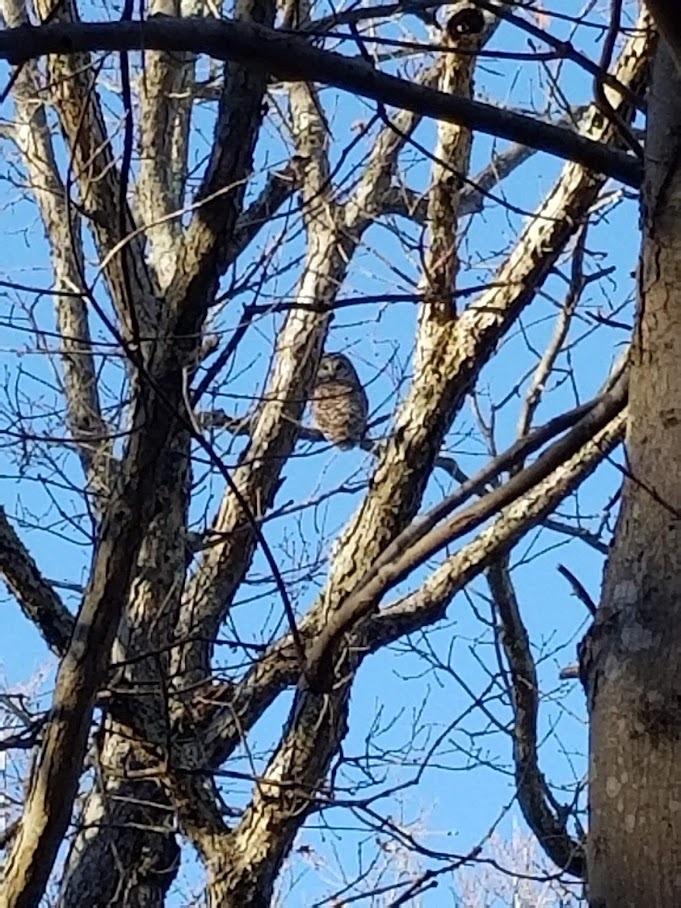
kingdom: Animalia
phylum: Chordata
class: Aves
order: Strigiformes
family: Strigidae
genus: Strix
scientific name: Strix varia
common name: Barred owl
